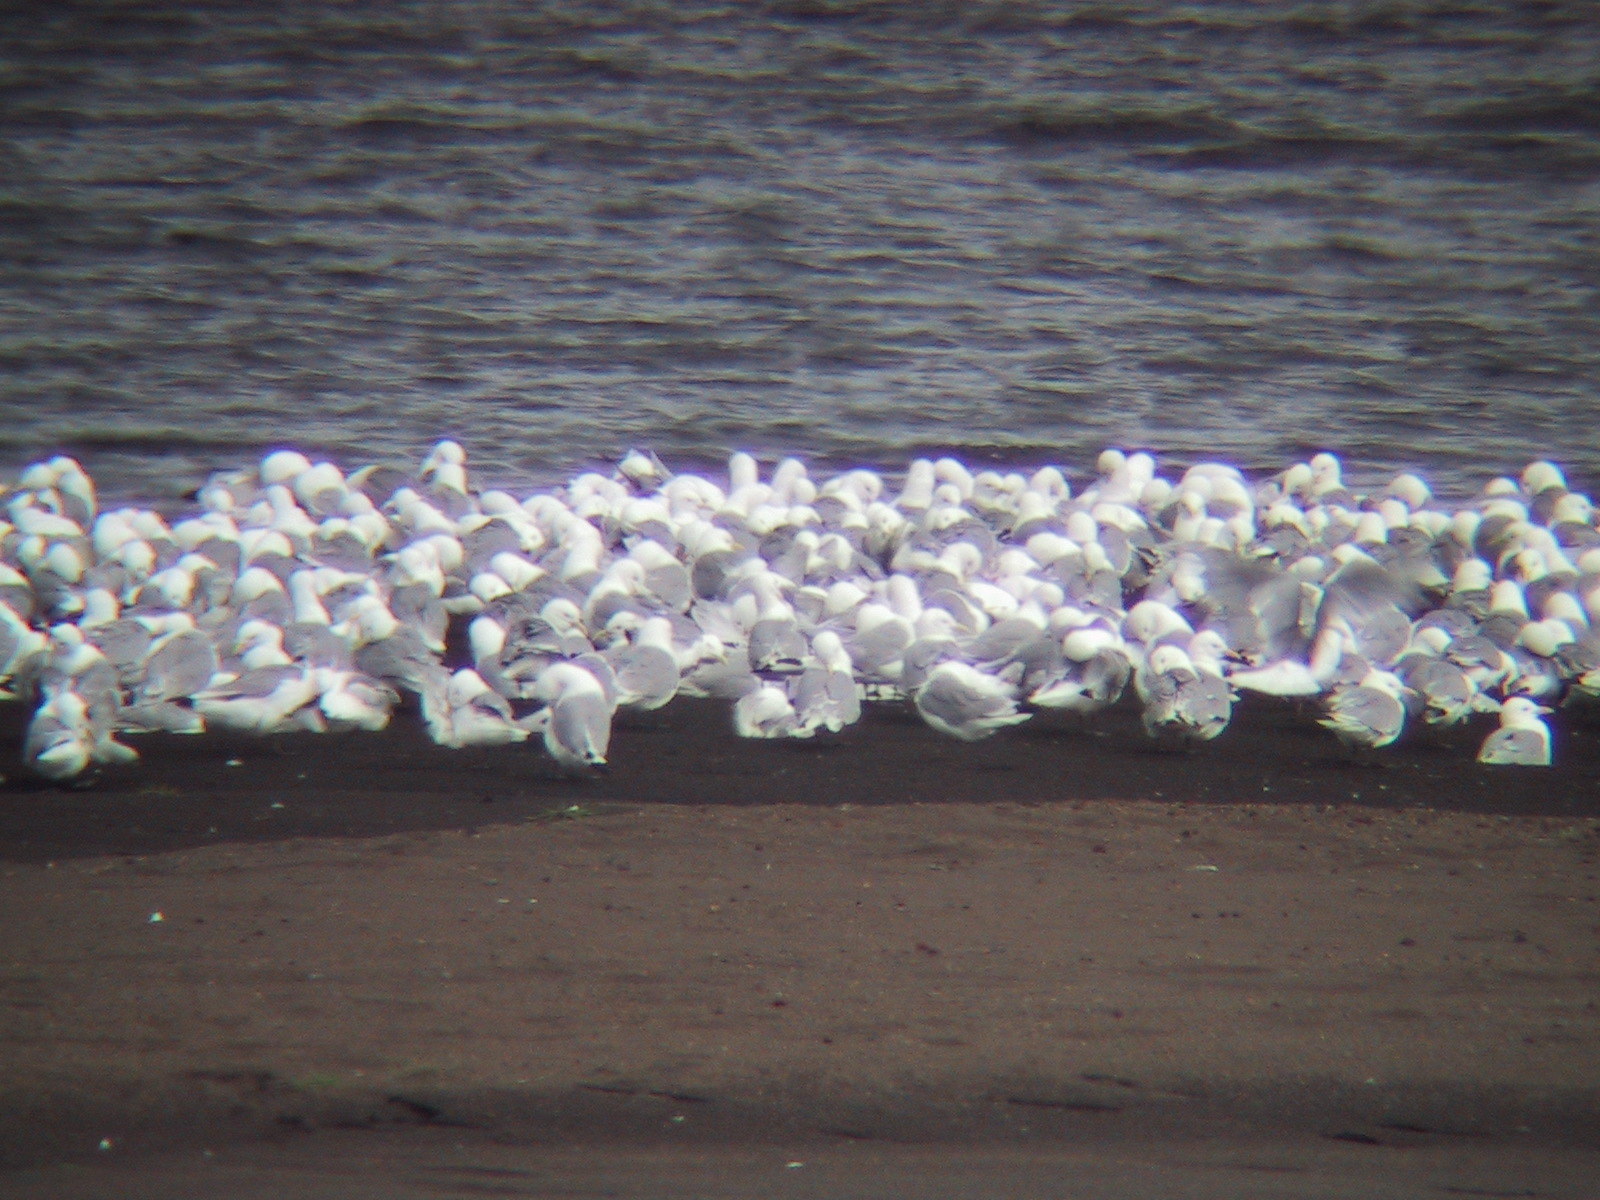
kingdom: Animalia
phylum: Chordata
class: Aves
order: Charadriiformes
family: Laridae
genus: Rissa
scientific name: Rissa tridactyla
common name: Black-legged kittiwake
